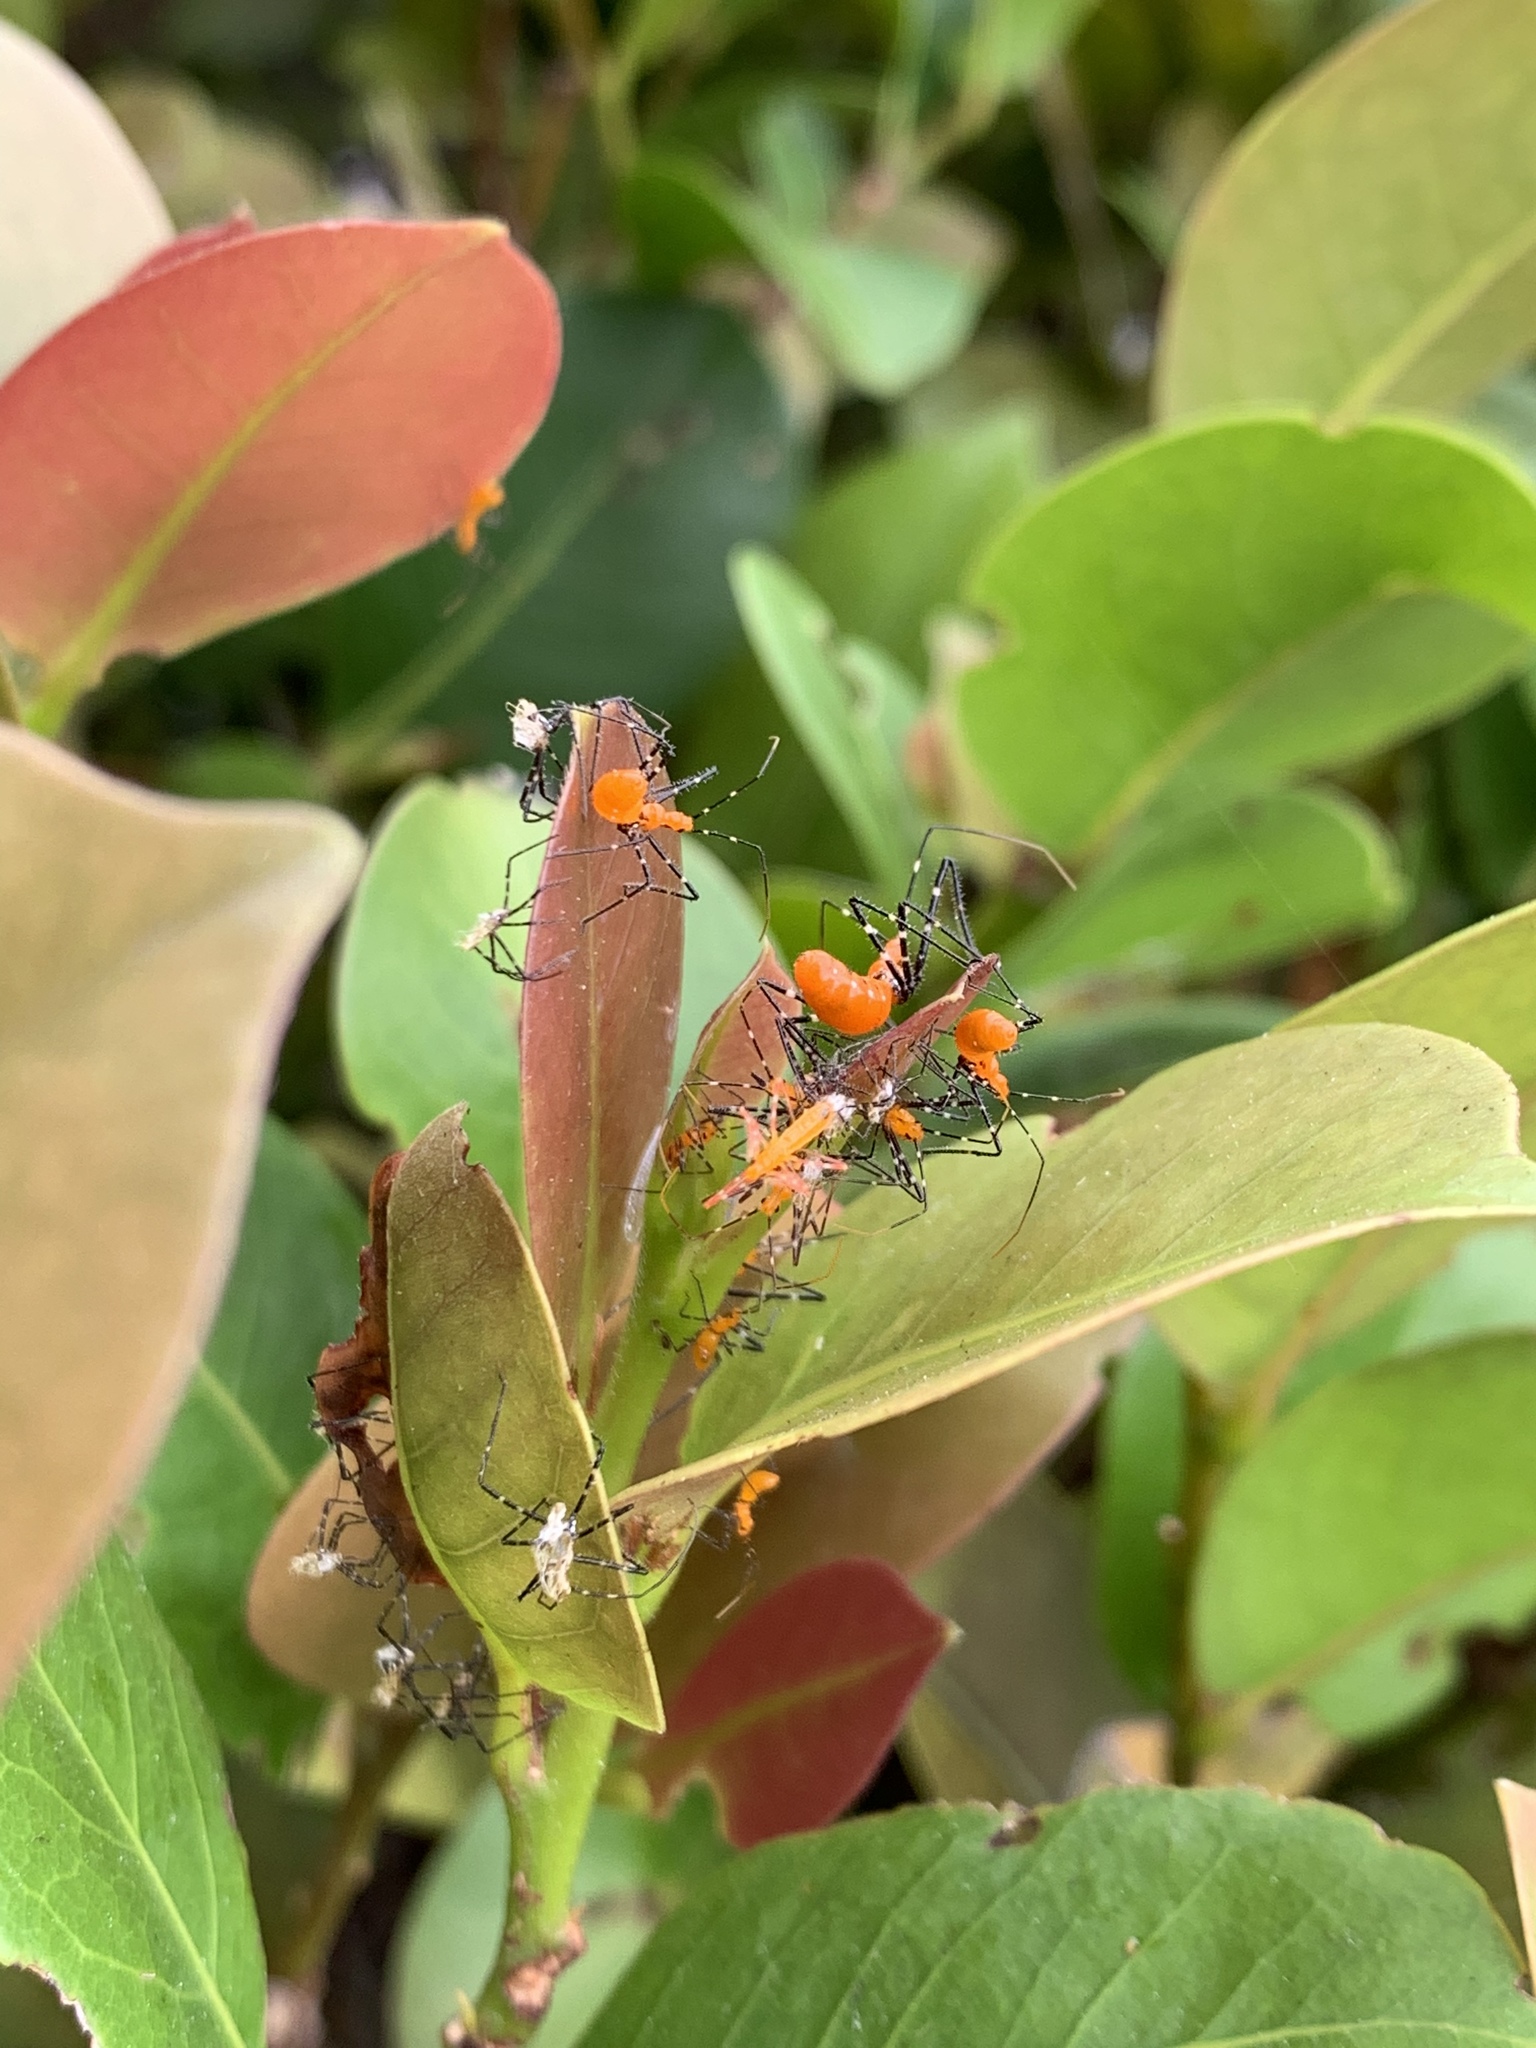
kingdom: Animalia
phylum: Arthropoda
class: Insecta
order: Hemiptera
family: Reduviidae
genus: Zelus
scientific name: Zelus longipes
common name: Milkweed assassin bug
